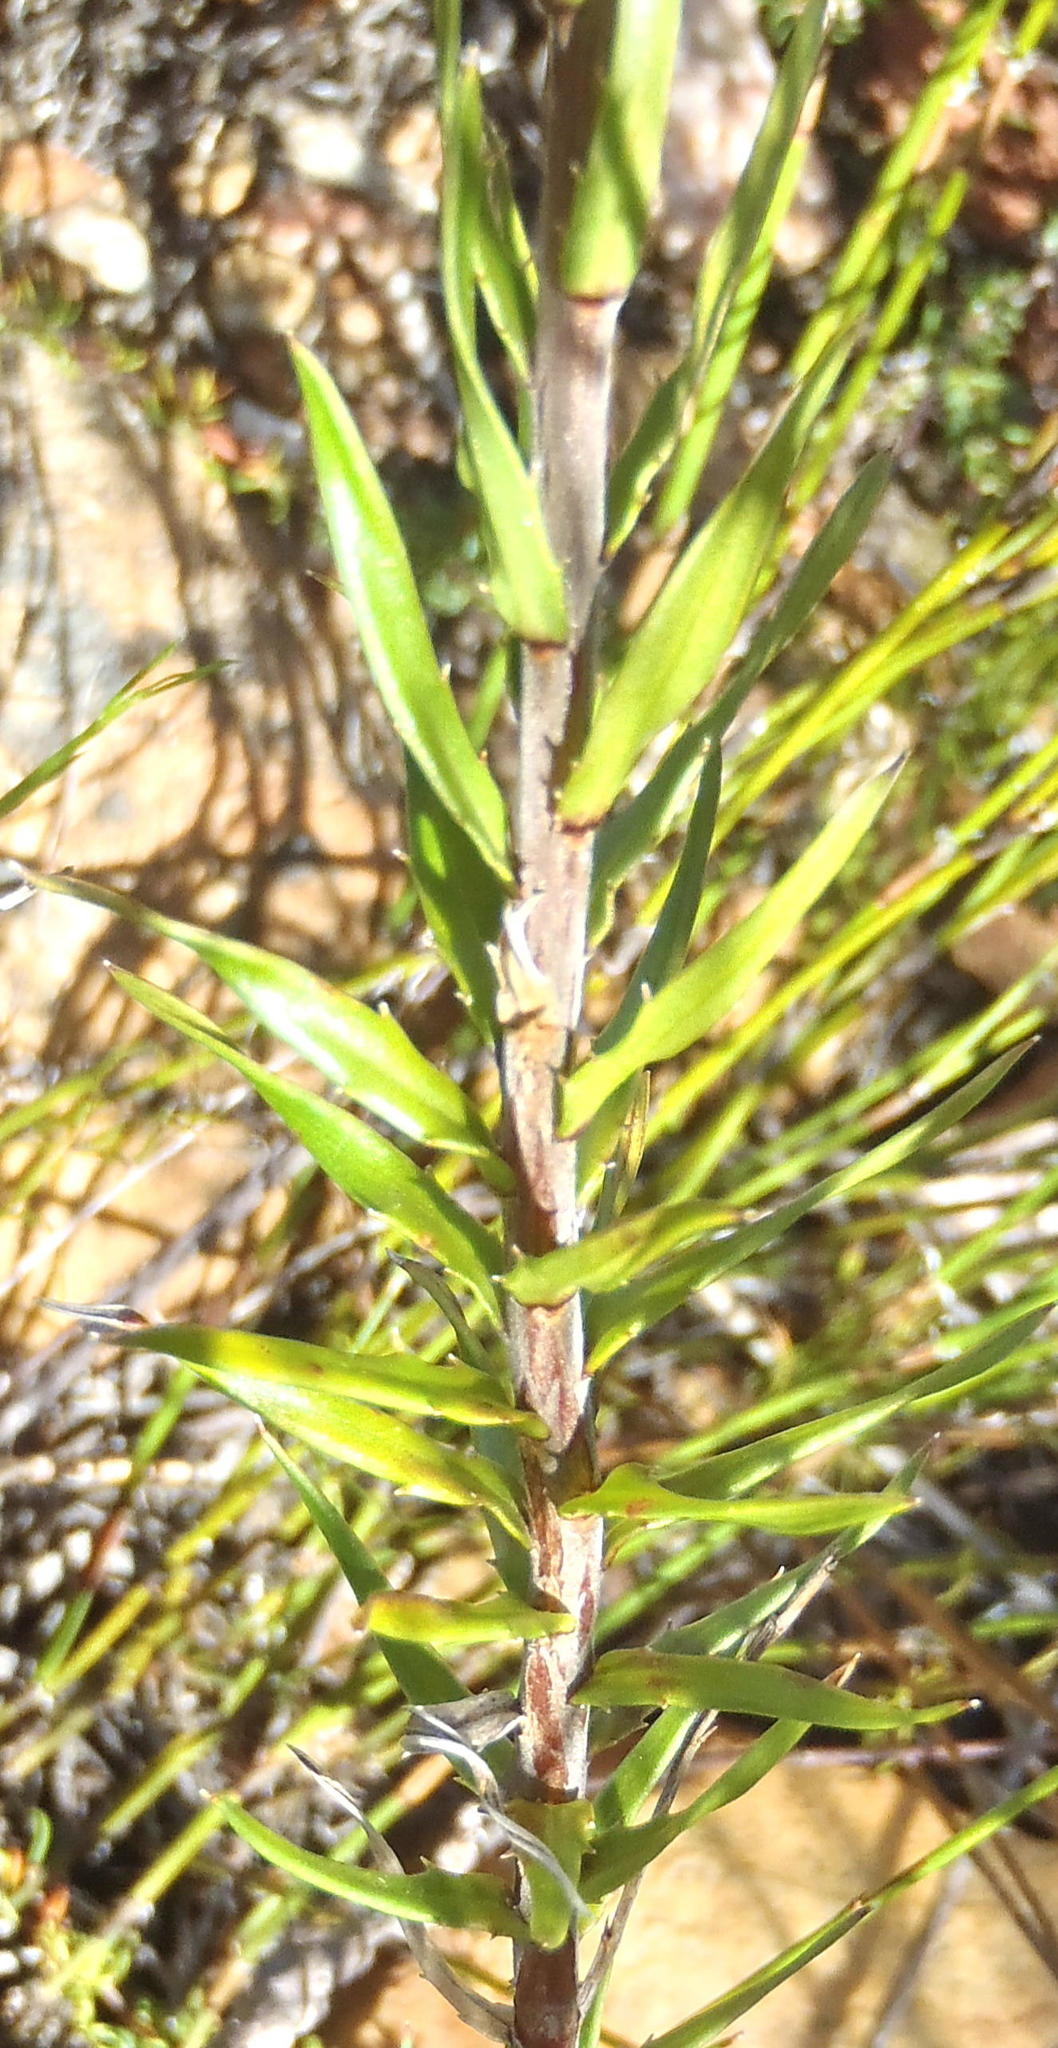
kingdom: Plantae
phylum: Tracheophyta
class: Magnoliopsida
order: Asterales
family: Campanulaceae
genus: Prismatocarpus
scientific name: Prismatocarpus candolleanus
